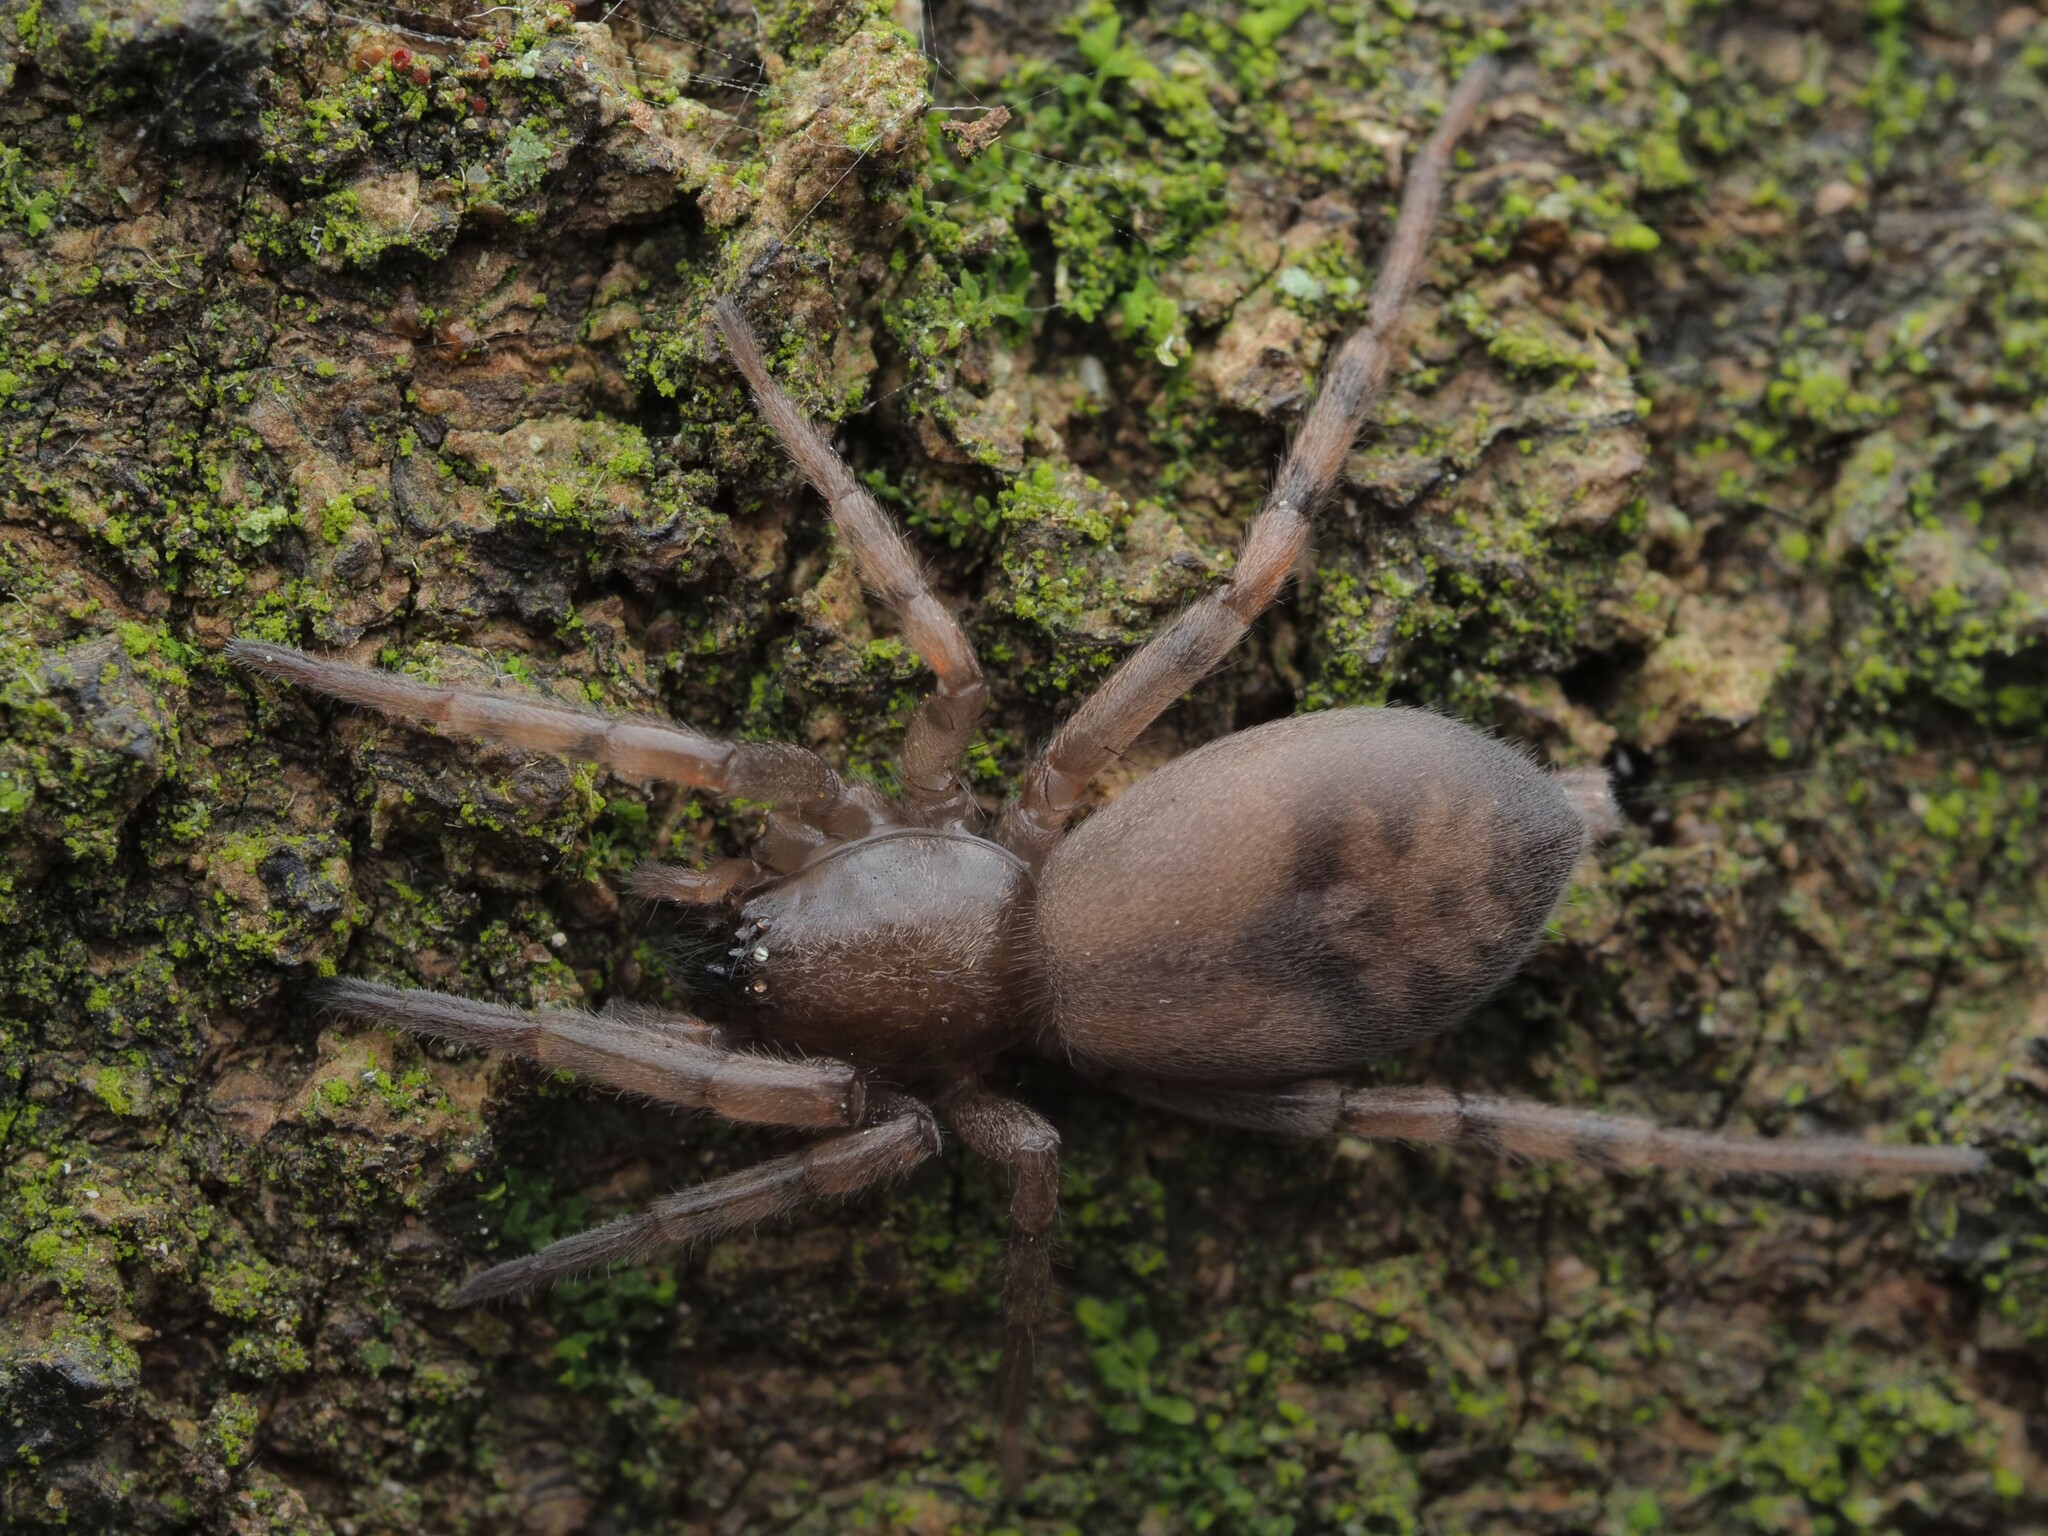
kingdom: Animalia
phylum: Arthropoda
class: Arachnida
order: Araneae
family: Gnaphosidae
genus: Intruda
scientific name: Intruda signata
